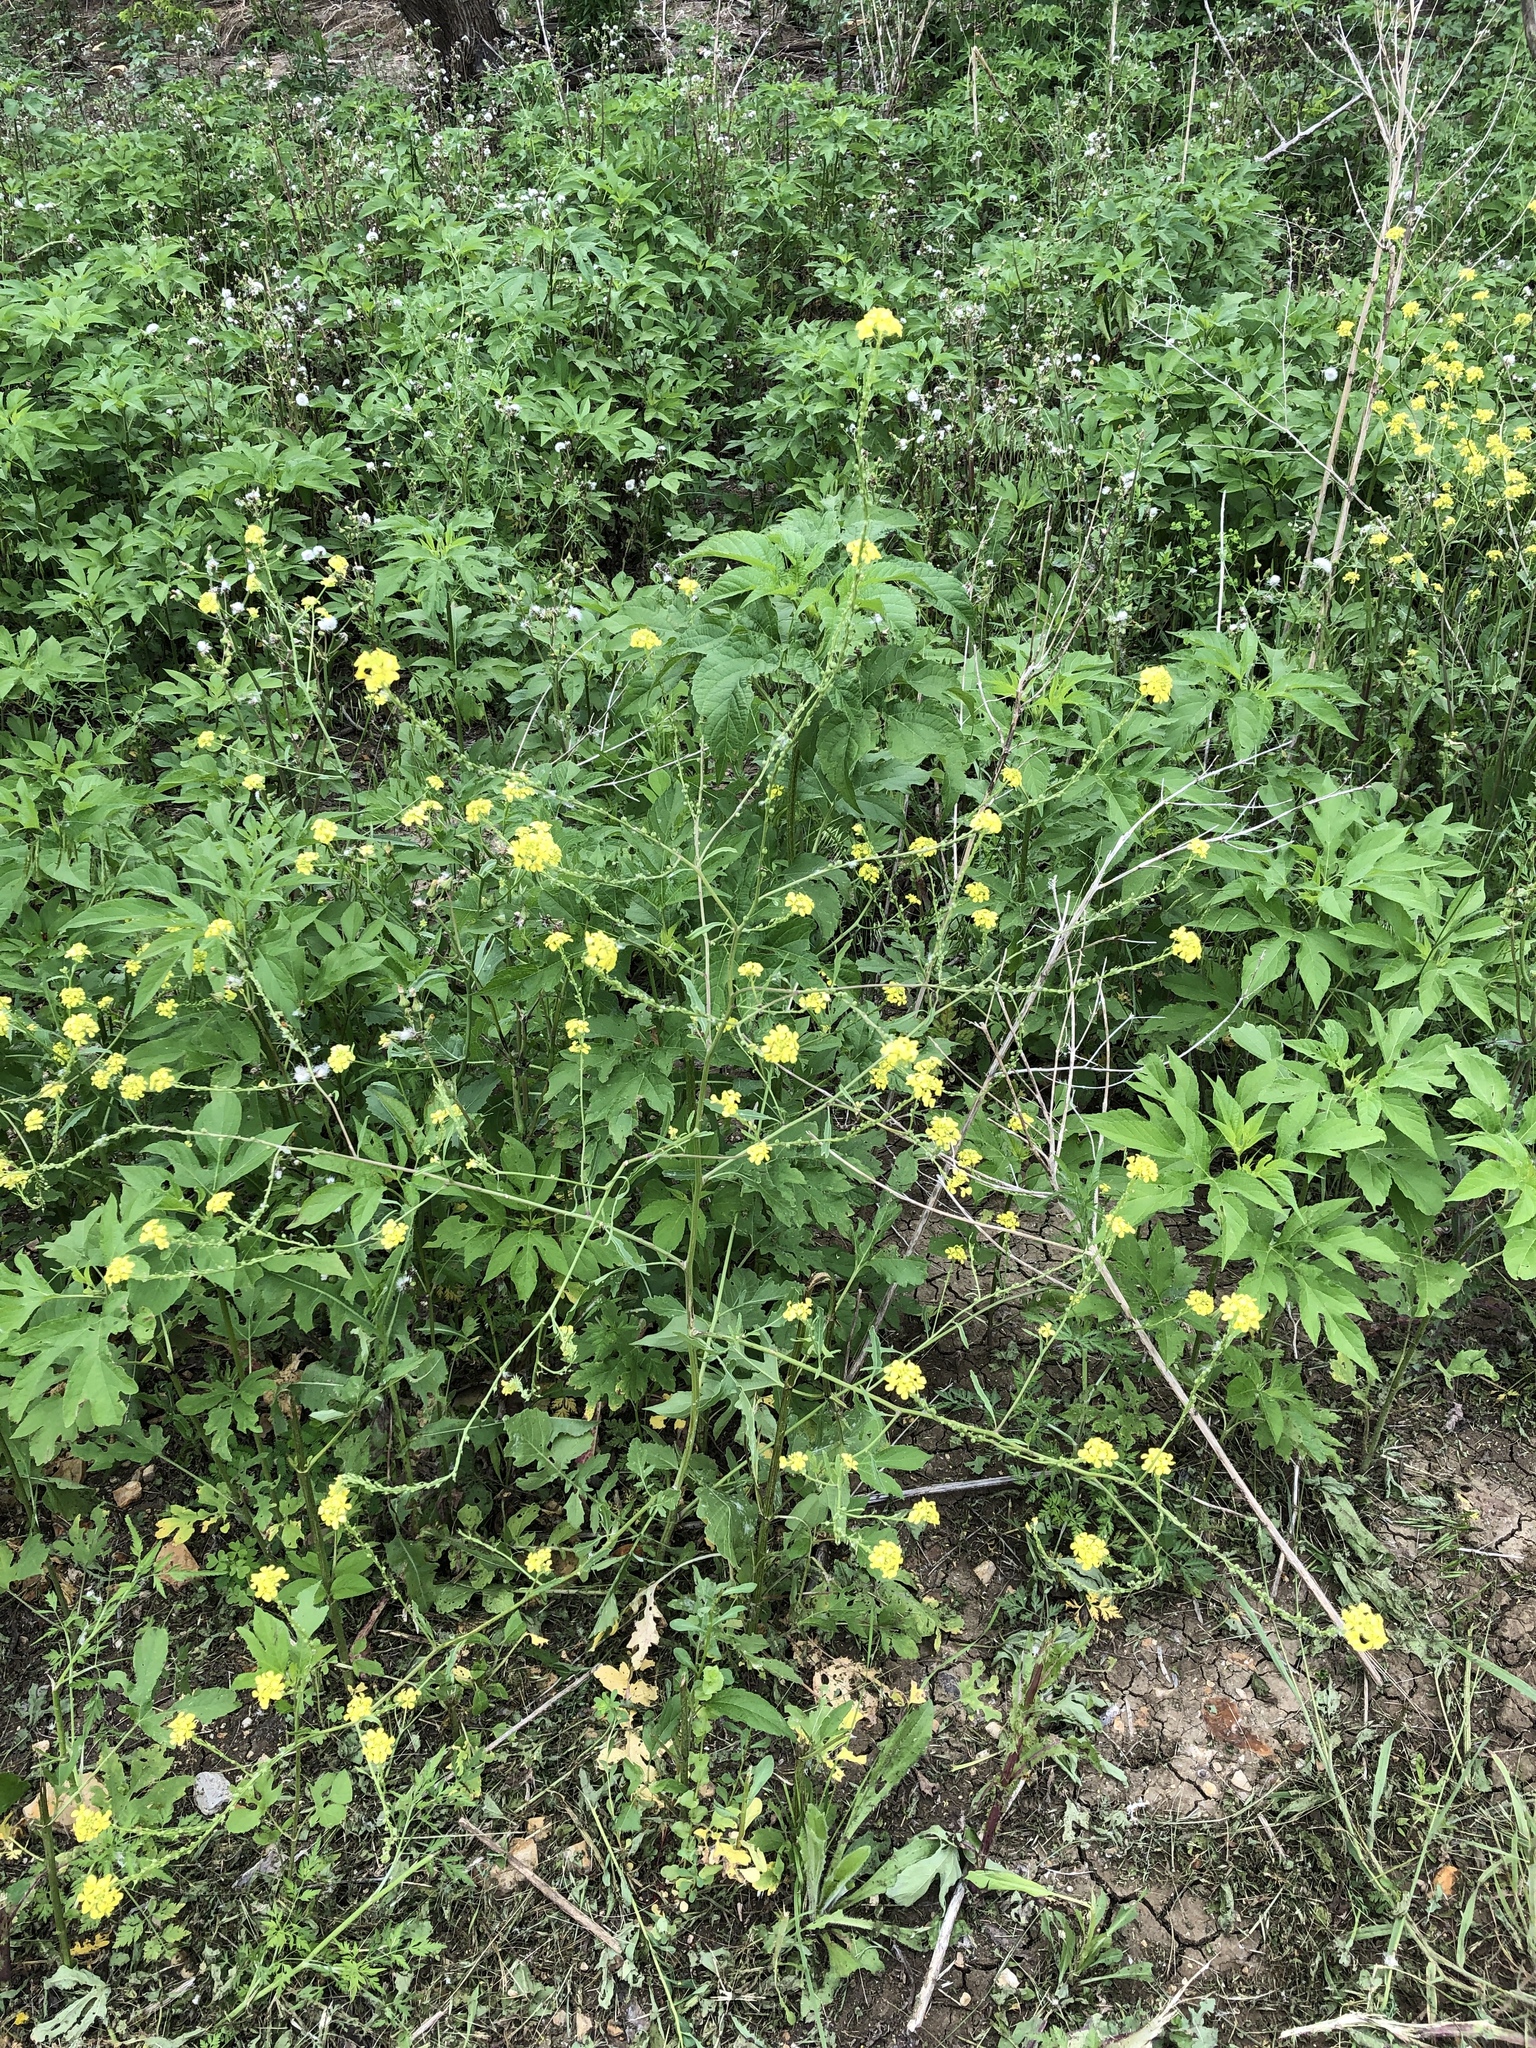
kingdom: Plantae
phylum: Tracheophyta
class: Magnoliopsida
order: Brassicales
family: Brassicaceae
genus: Rapistrum
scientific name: Rapistrum rugosum
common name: Annual bastardcabbage
